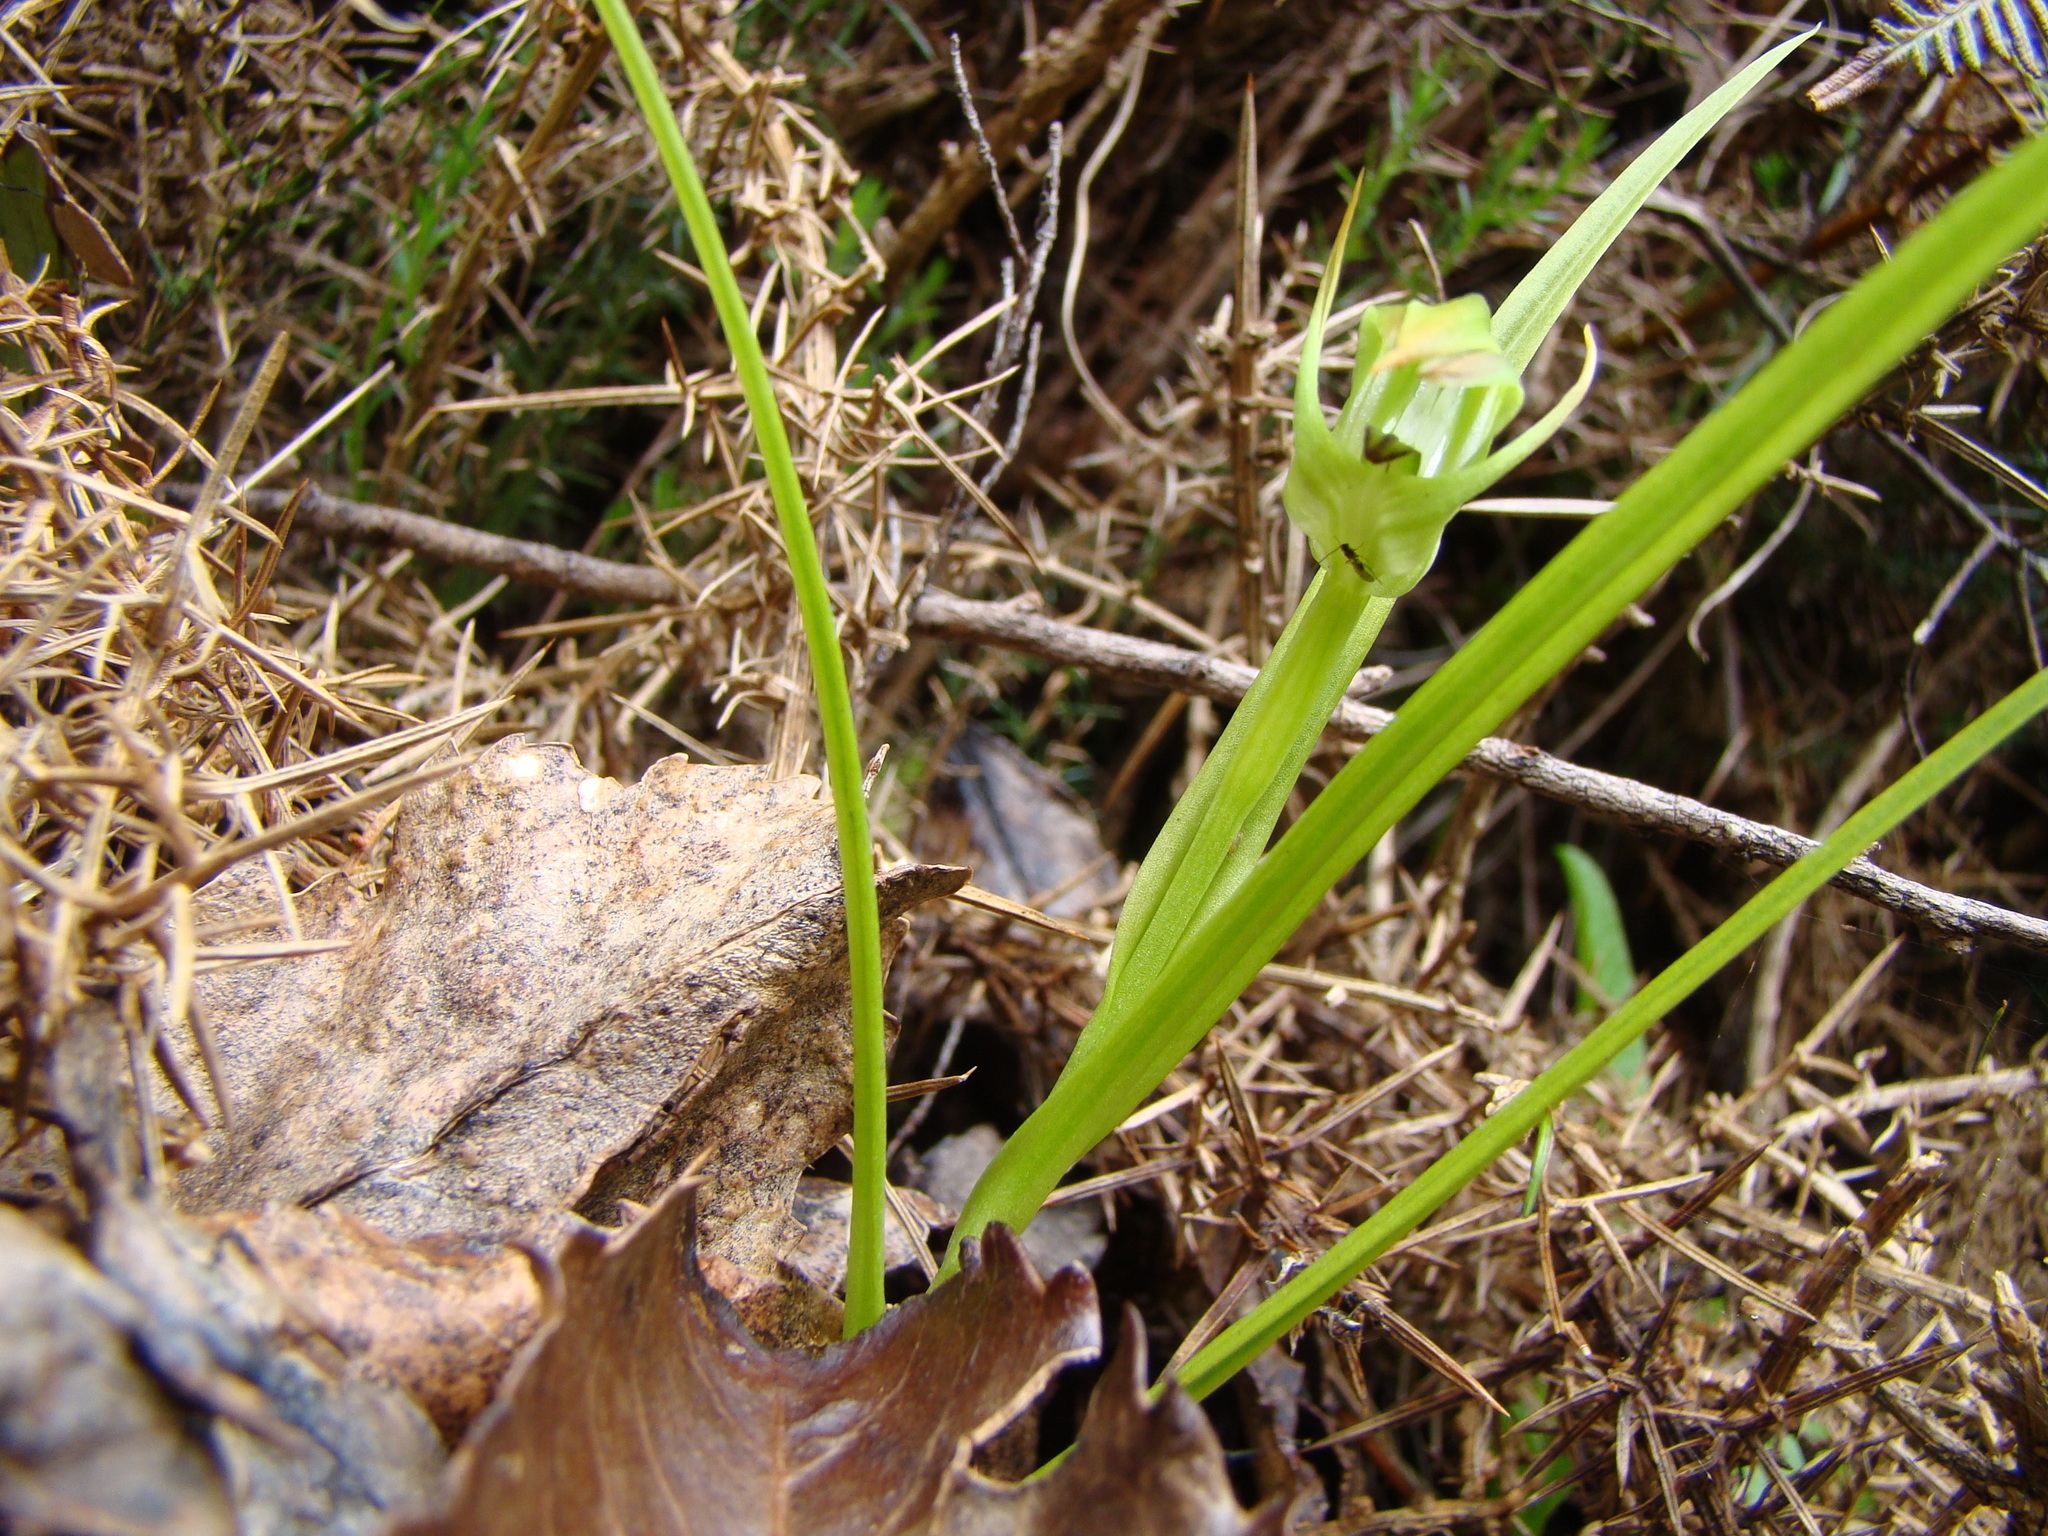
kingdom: Plantae
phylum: Tracheophyta
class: Liliopsida
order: Asparagales
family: Orchidaceae
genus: Pterostylis
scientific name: Pterostylis graminea
